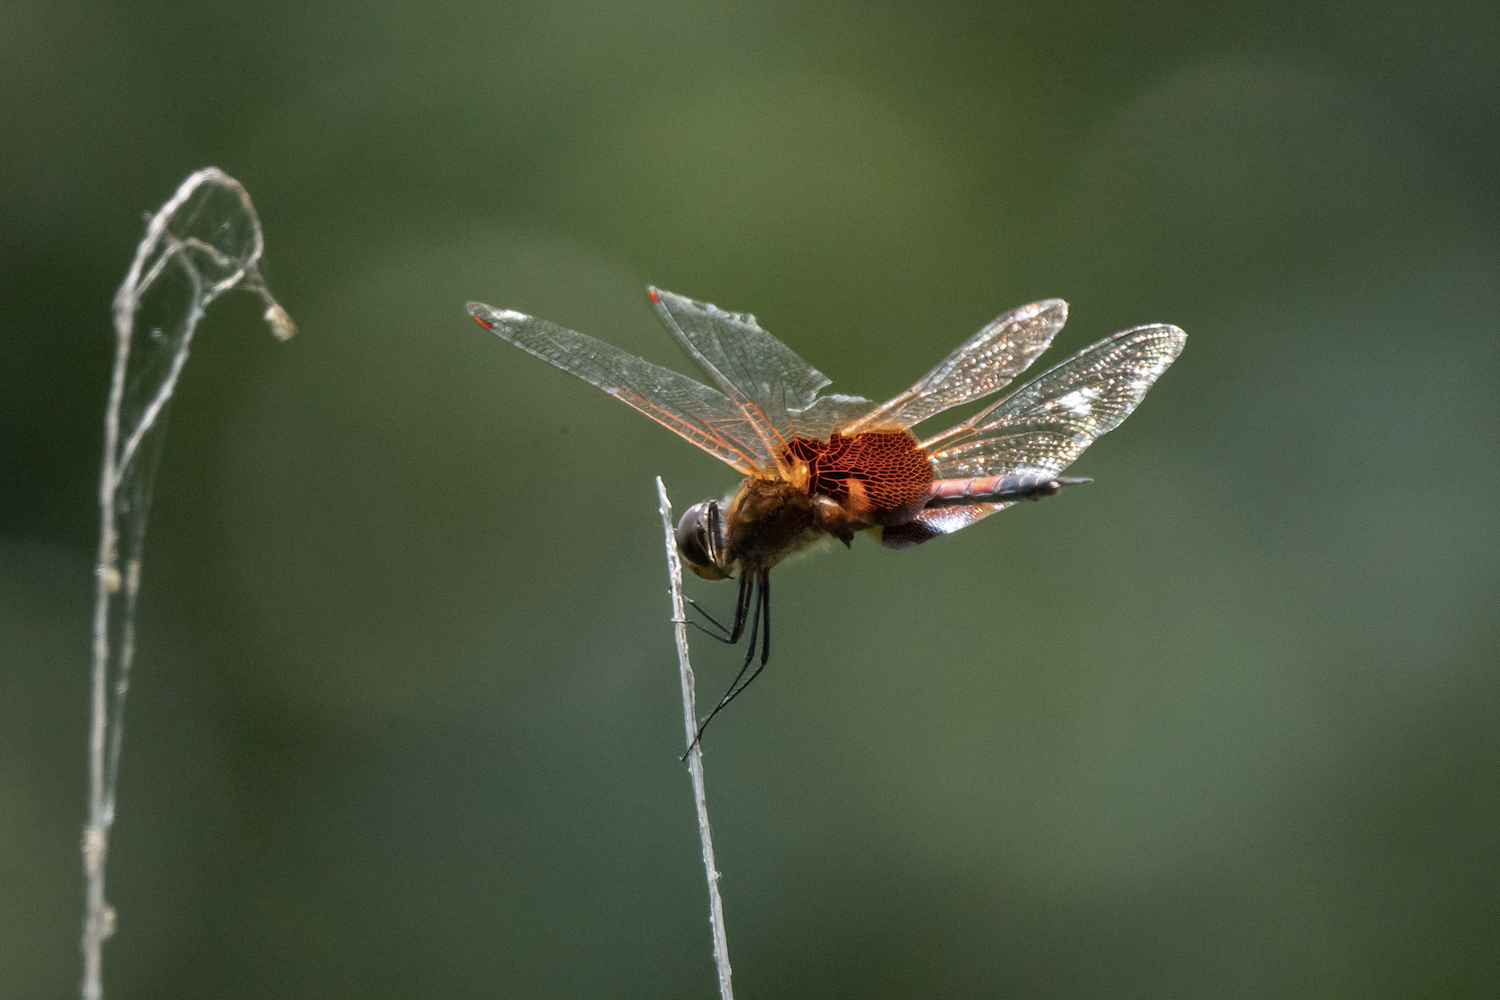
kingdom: Animalia
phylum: Arthropoda
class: Insecta
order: Odonata
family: Libellulidae
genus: Tramea
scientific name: Tramea virginia
